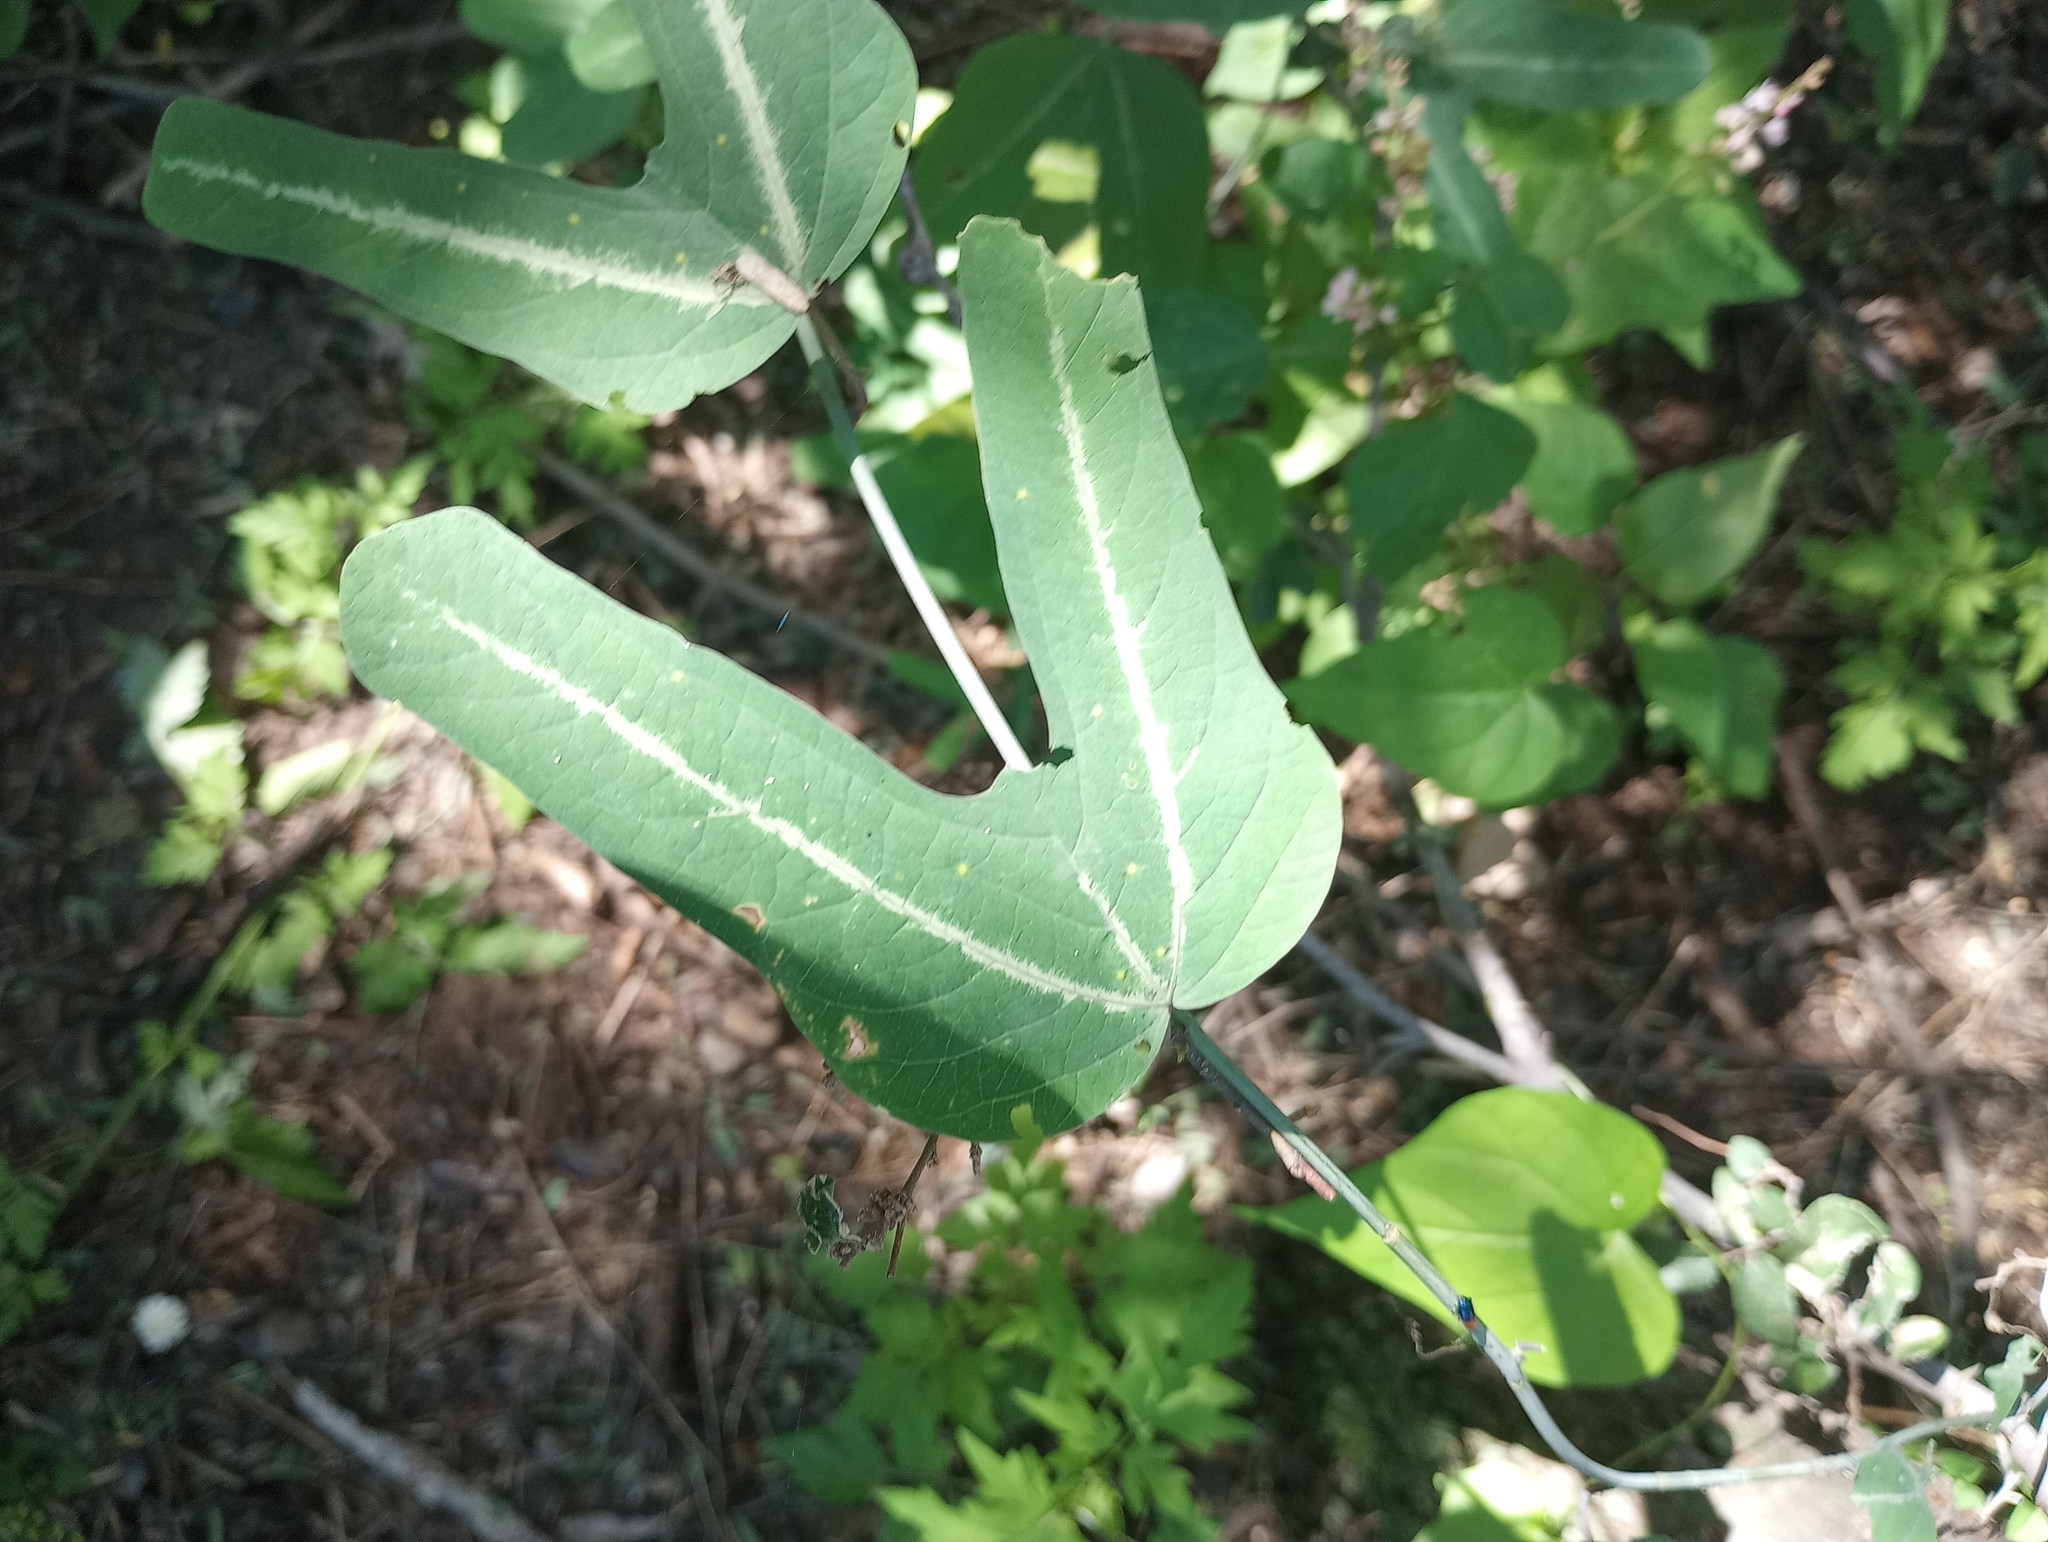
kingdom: Plantae
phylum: Tracheophyta
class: Magnoliopsida
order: Malpighiales
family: Passifloraceae
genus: Passiflora
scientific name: Passiflora mexicana
